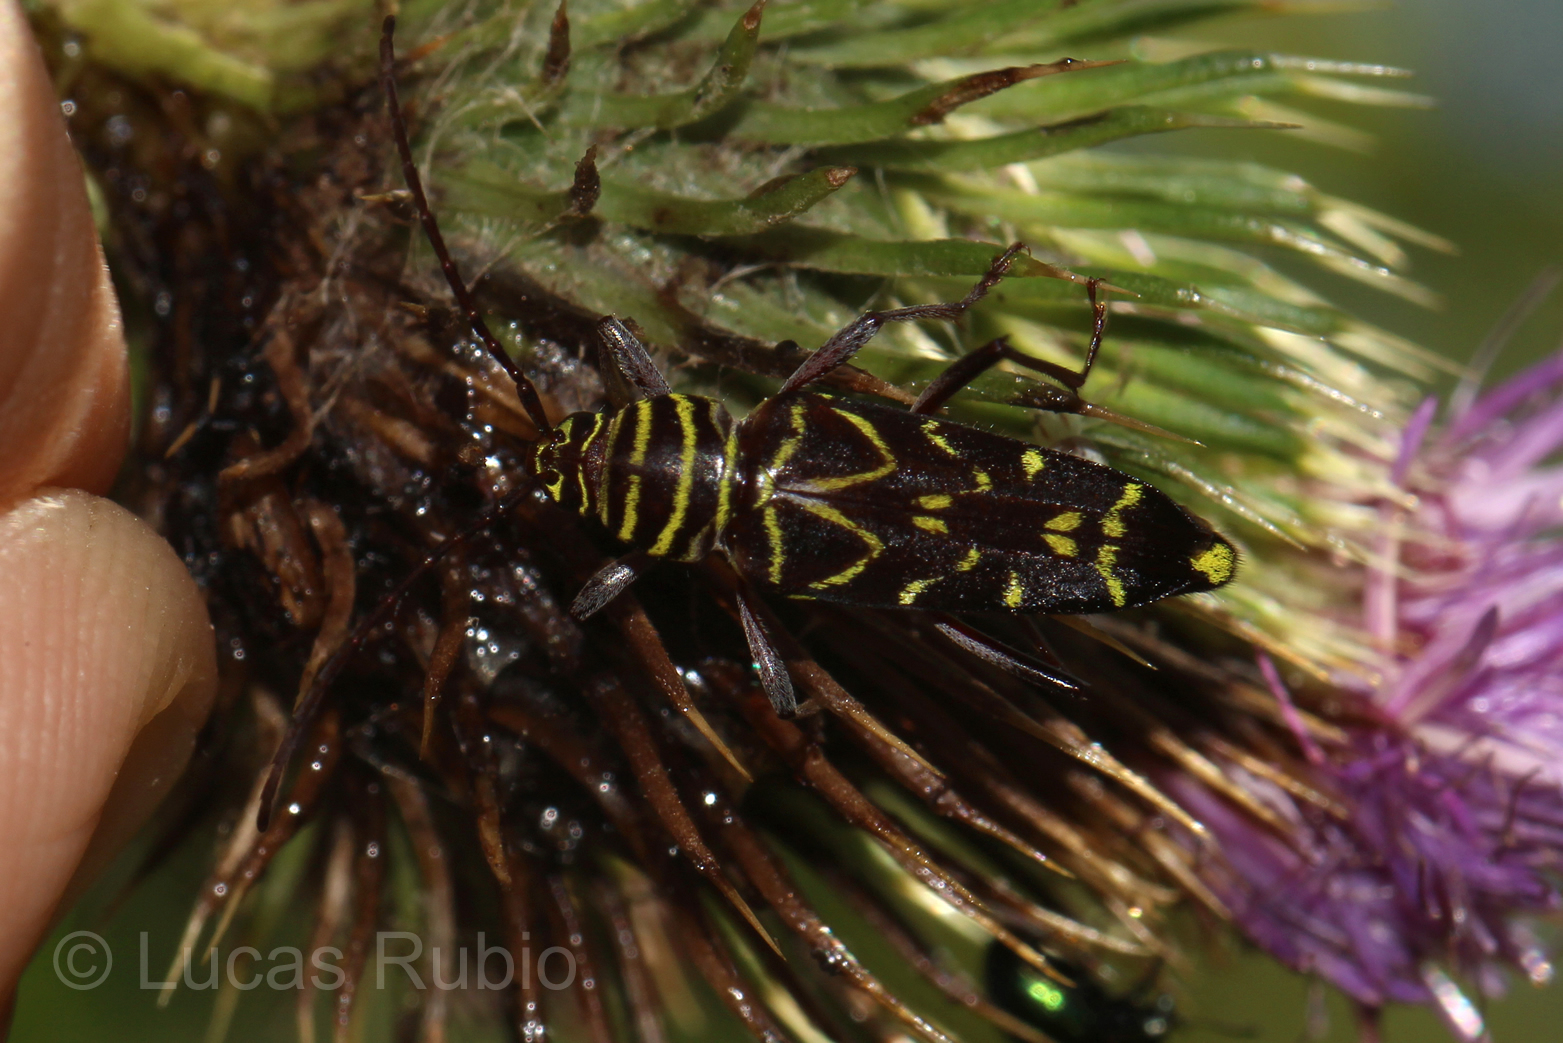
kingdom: Animalia
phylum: Arthropoda
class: Insecta
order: Coleoptera
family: Cerambycidae
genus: Megacyllene
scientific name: Megacyllene acuta
